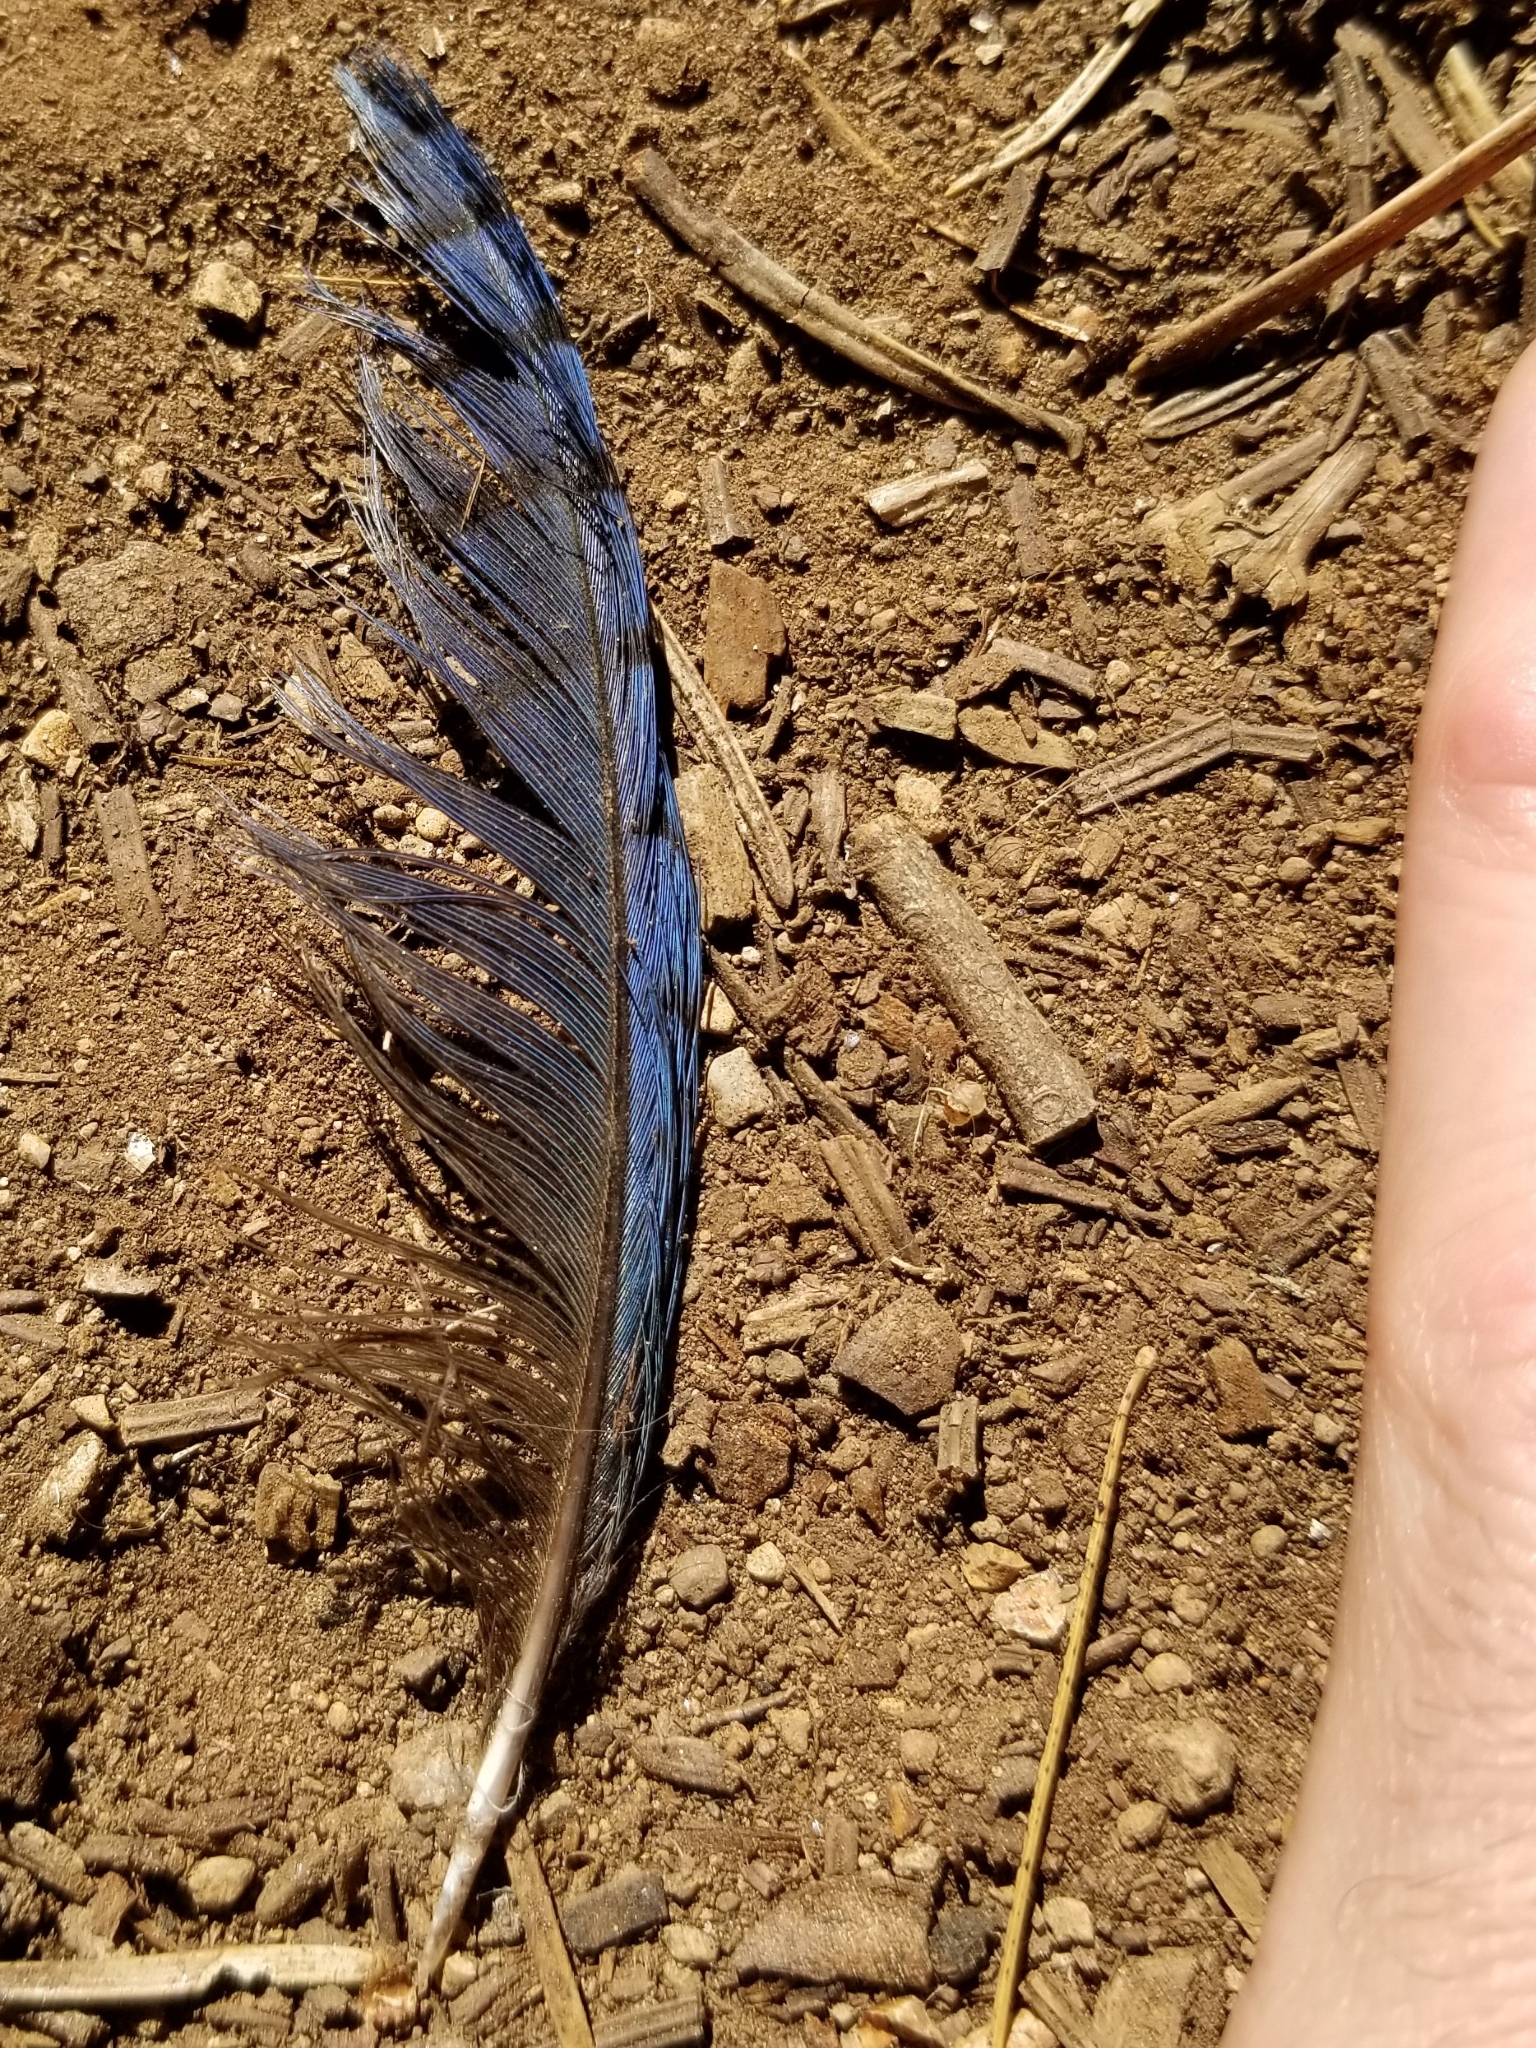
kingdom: Animalia
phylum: Chordata
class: Aves
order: Passeriformes
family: Corvidae
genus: Cyanocitta
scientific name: Cyanocitta stelleri
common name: Steller's jay
